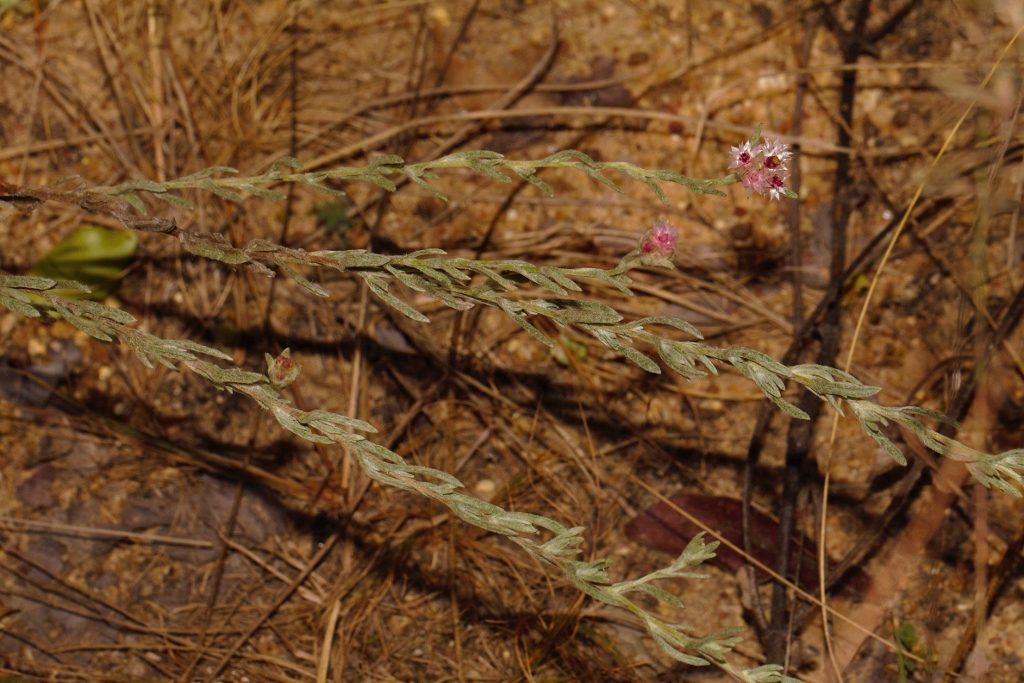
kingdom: Plantae
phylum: Tracheophyta
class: Magnoliopsida
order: Asterales
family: Asteraceae
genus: Helichrysum
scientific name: Helichrysum candolleanum
